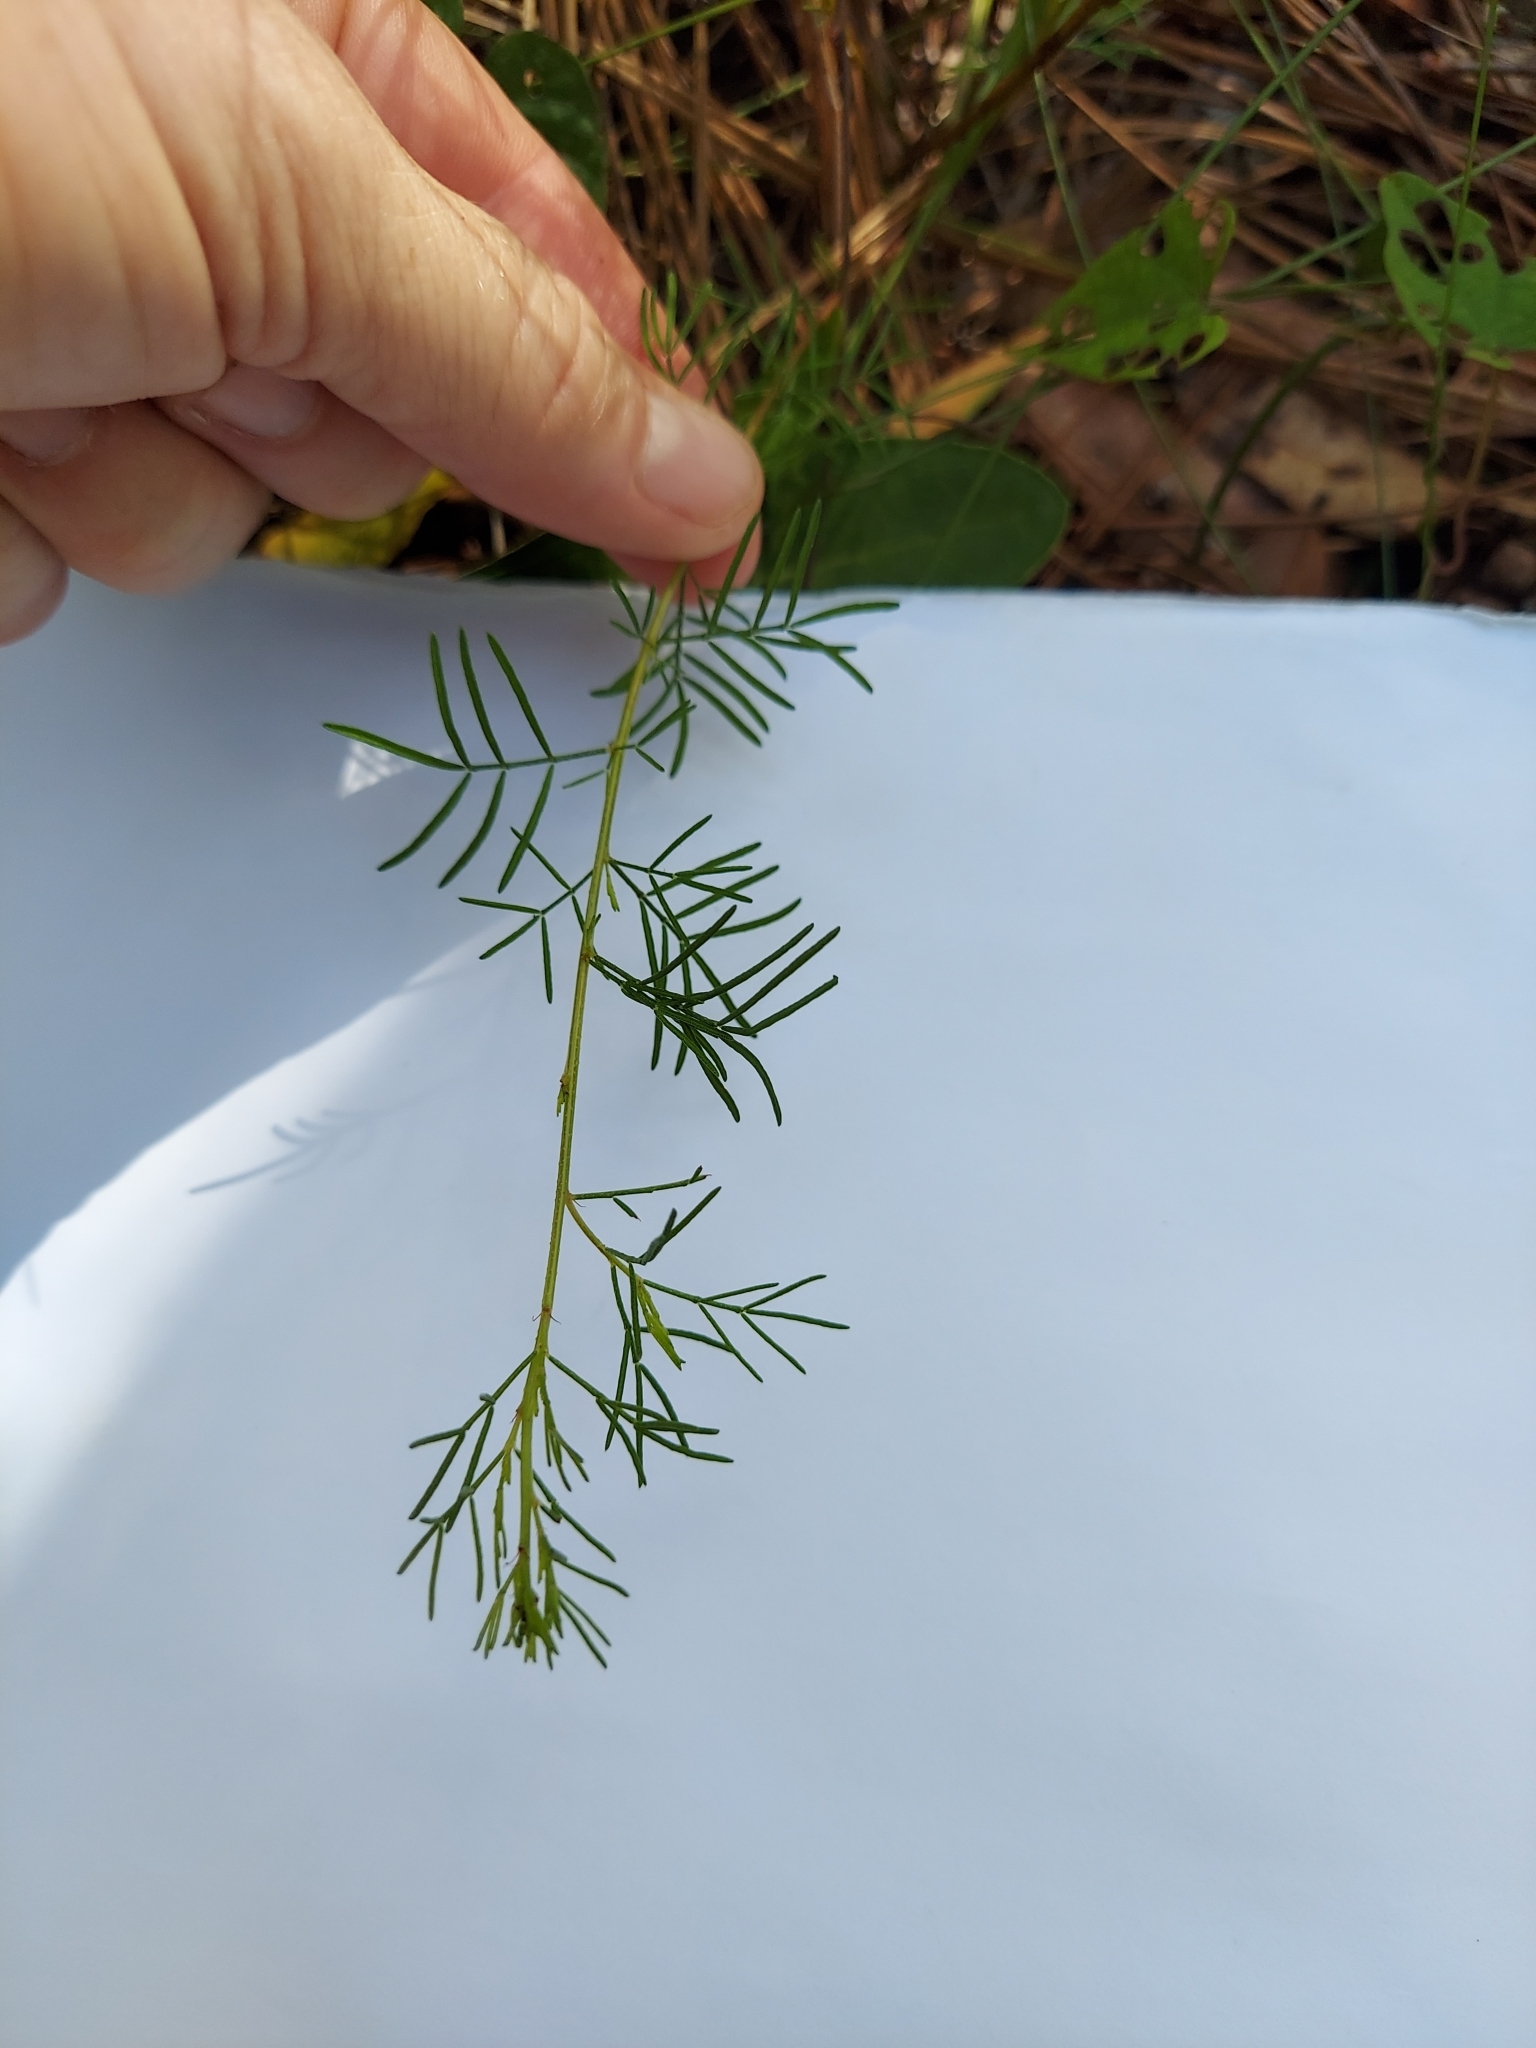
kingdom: Plantae
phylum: Tracheophyta
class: Magnoliopsida
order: Fabales
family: Fabaceae
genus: Dalea
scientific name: Dalea pinnata
